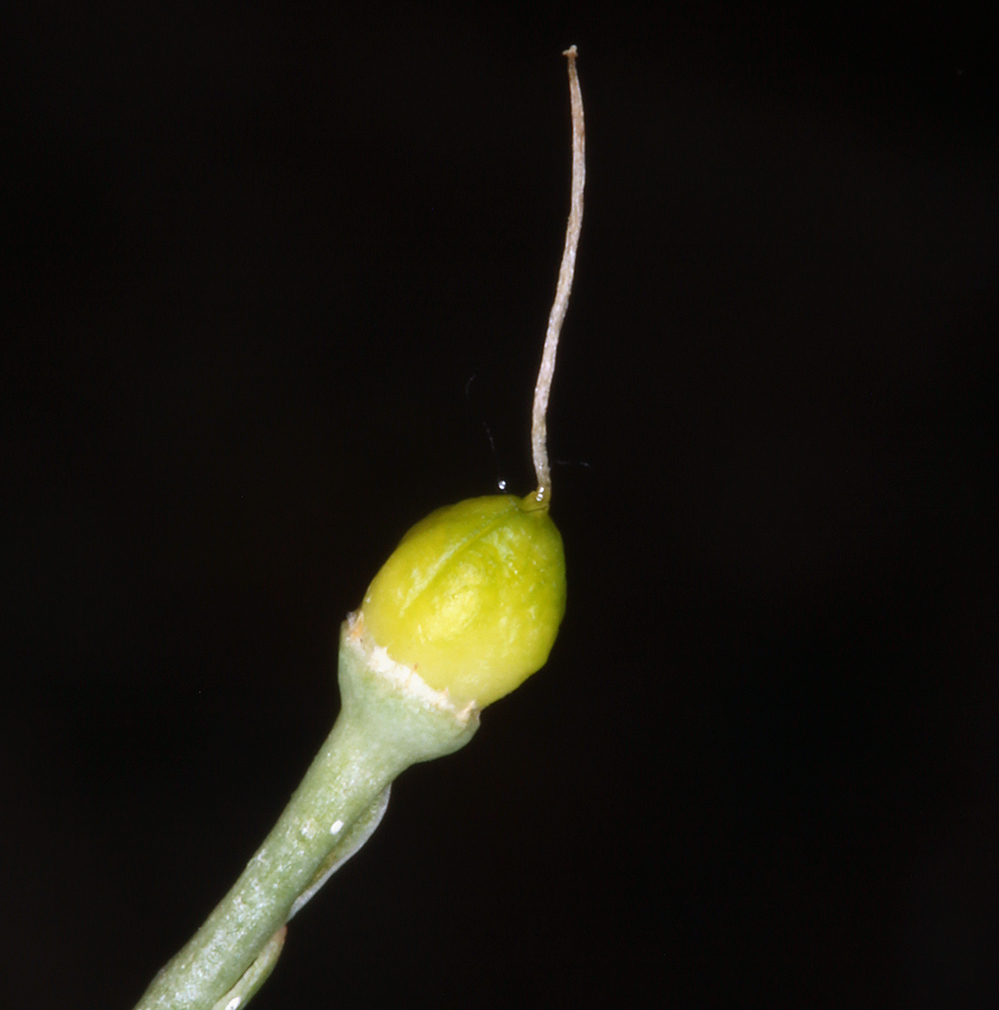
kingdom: Plantae
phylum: Tracheophyta
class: Liliopsida
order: Asparagales
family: Tecophilaeaceae
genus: Odontostomum
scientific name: Odontostomum hartwegii
